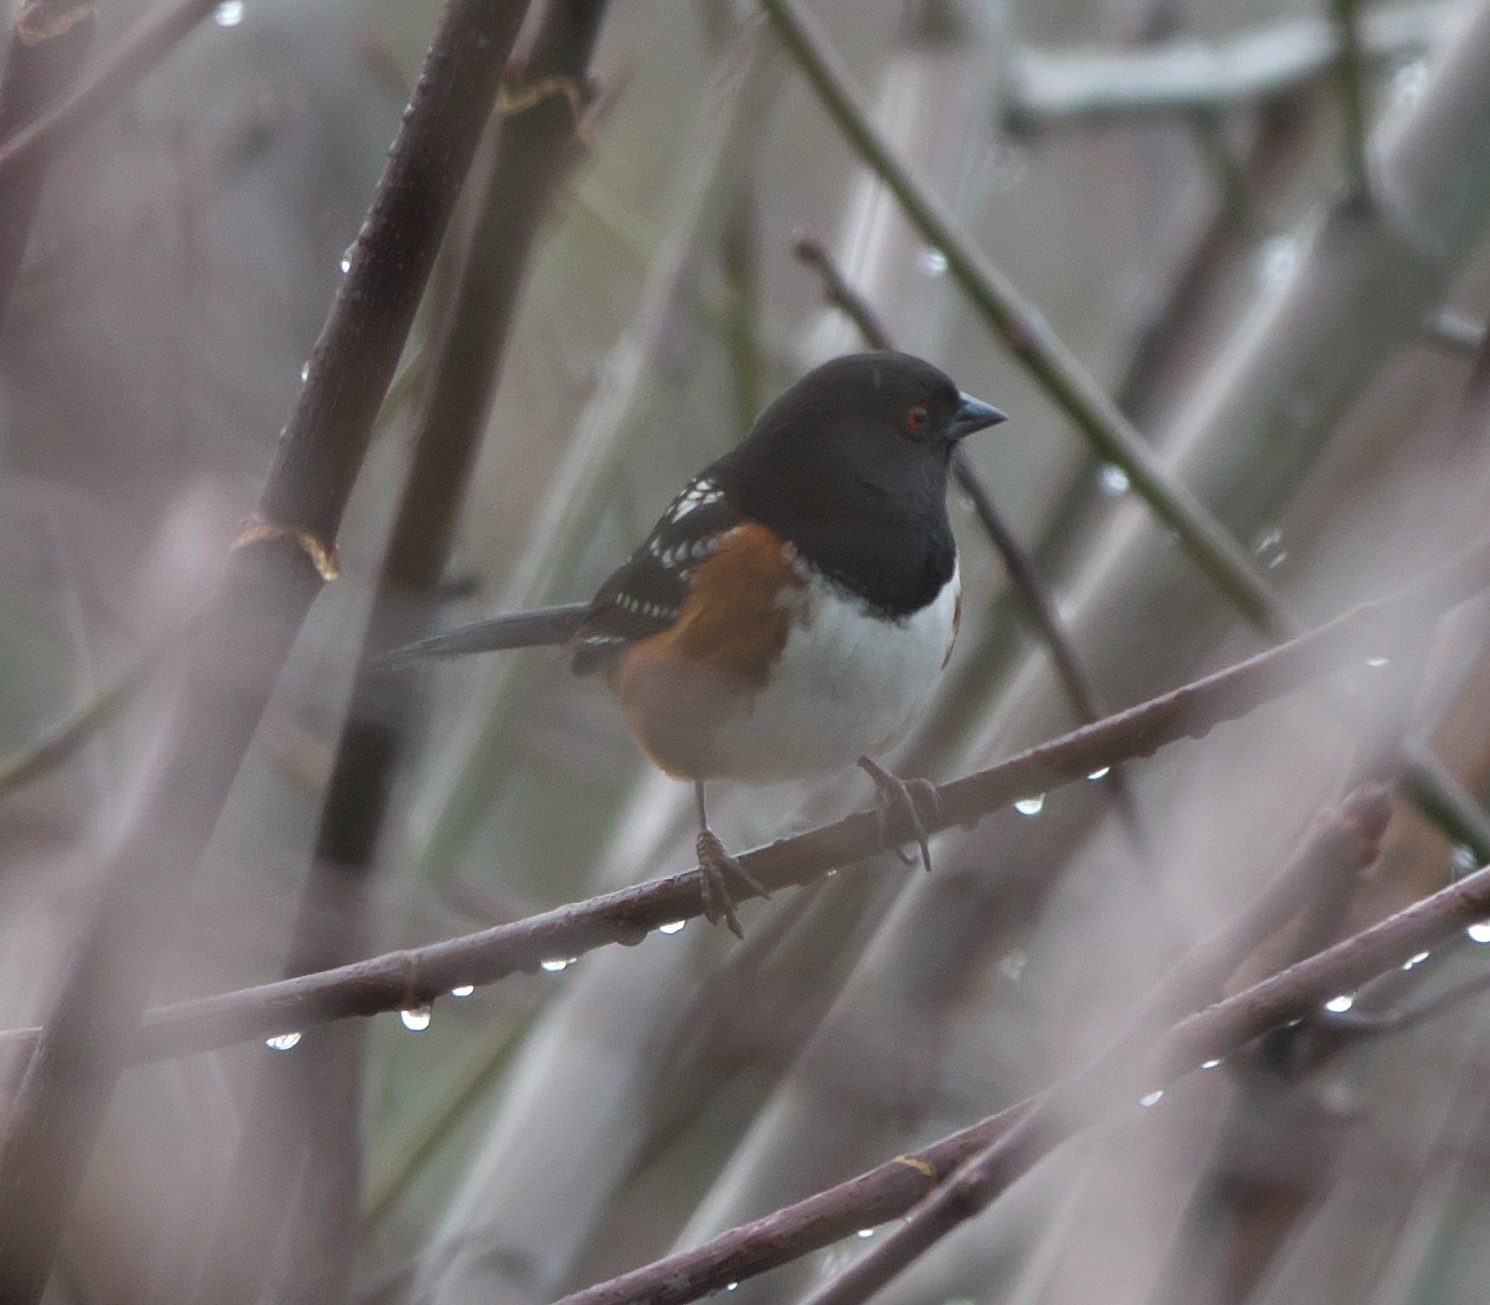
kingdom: Animalia
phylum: Chordata
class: Aves
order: Passeriformes
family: Passerellidae
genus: Pipilo
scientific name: Pipilo maculatus
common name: Spotted towhee
